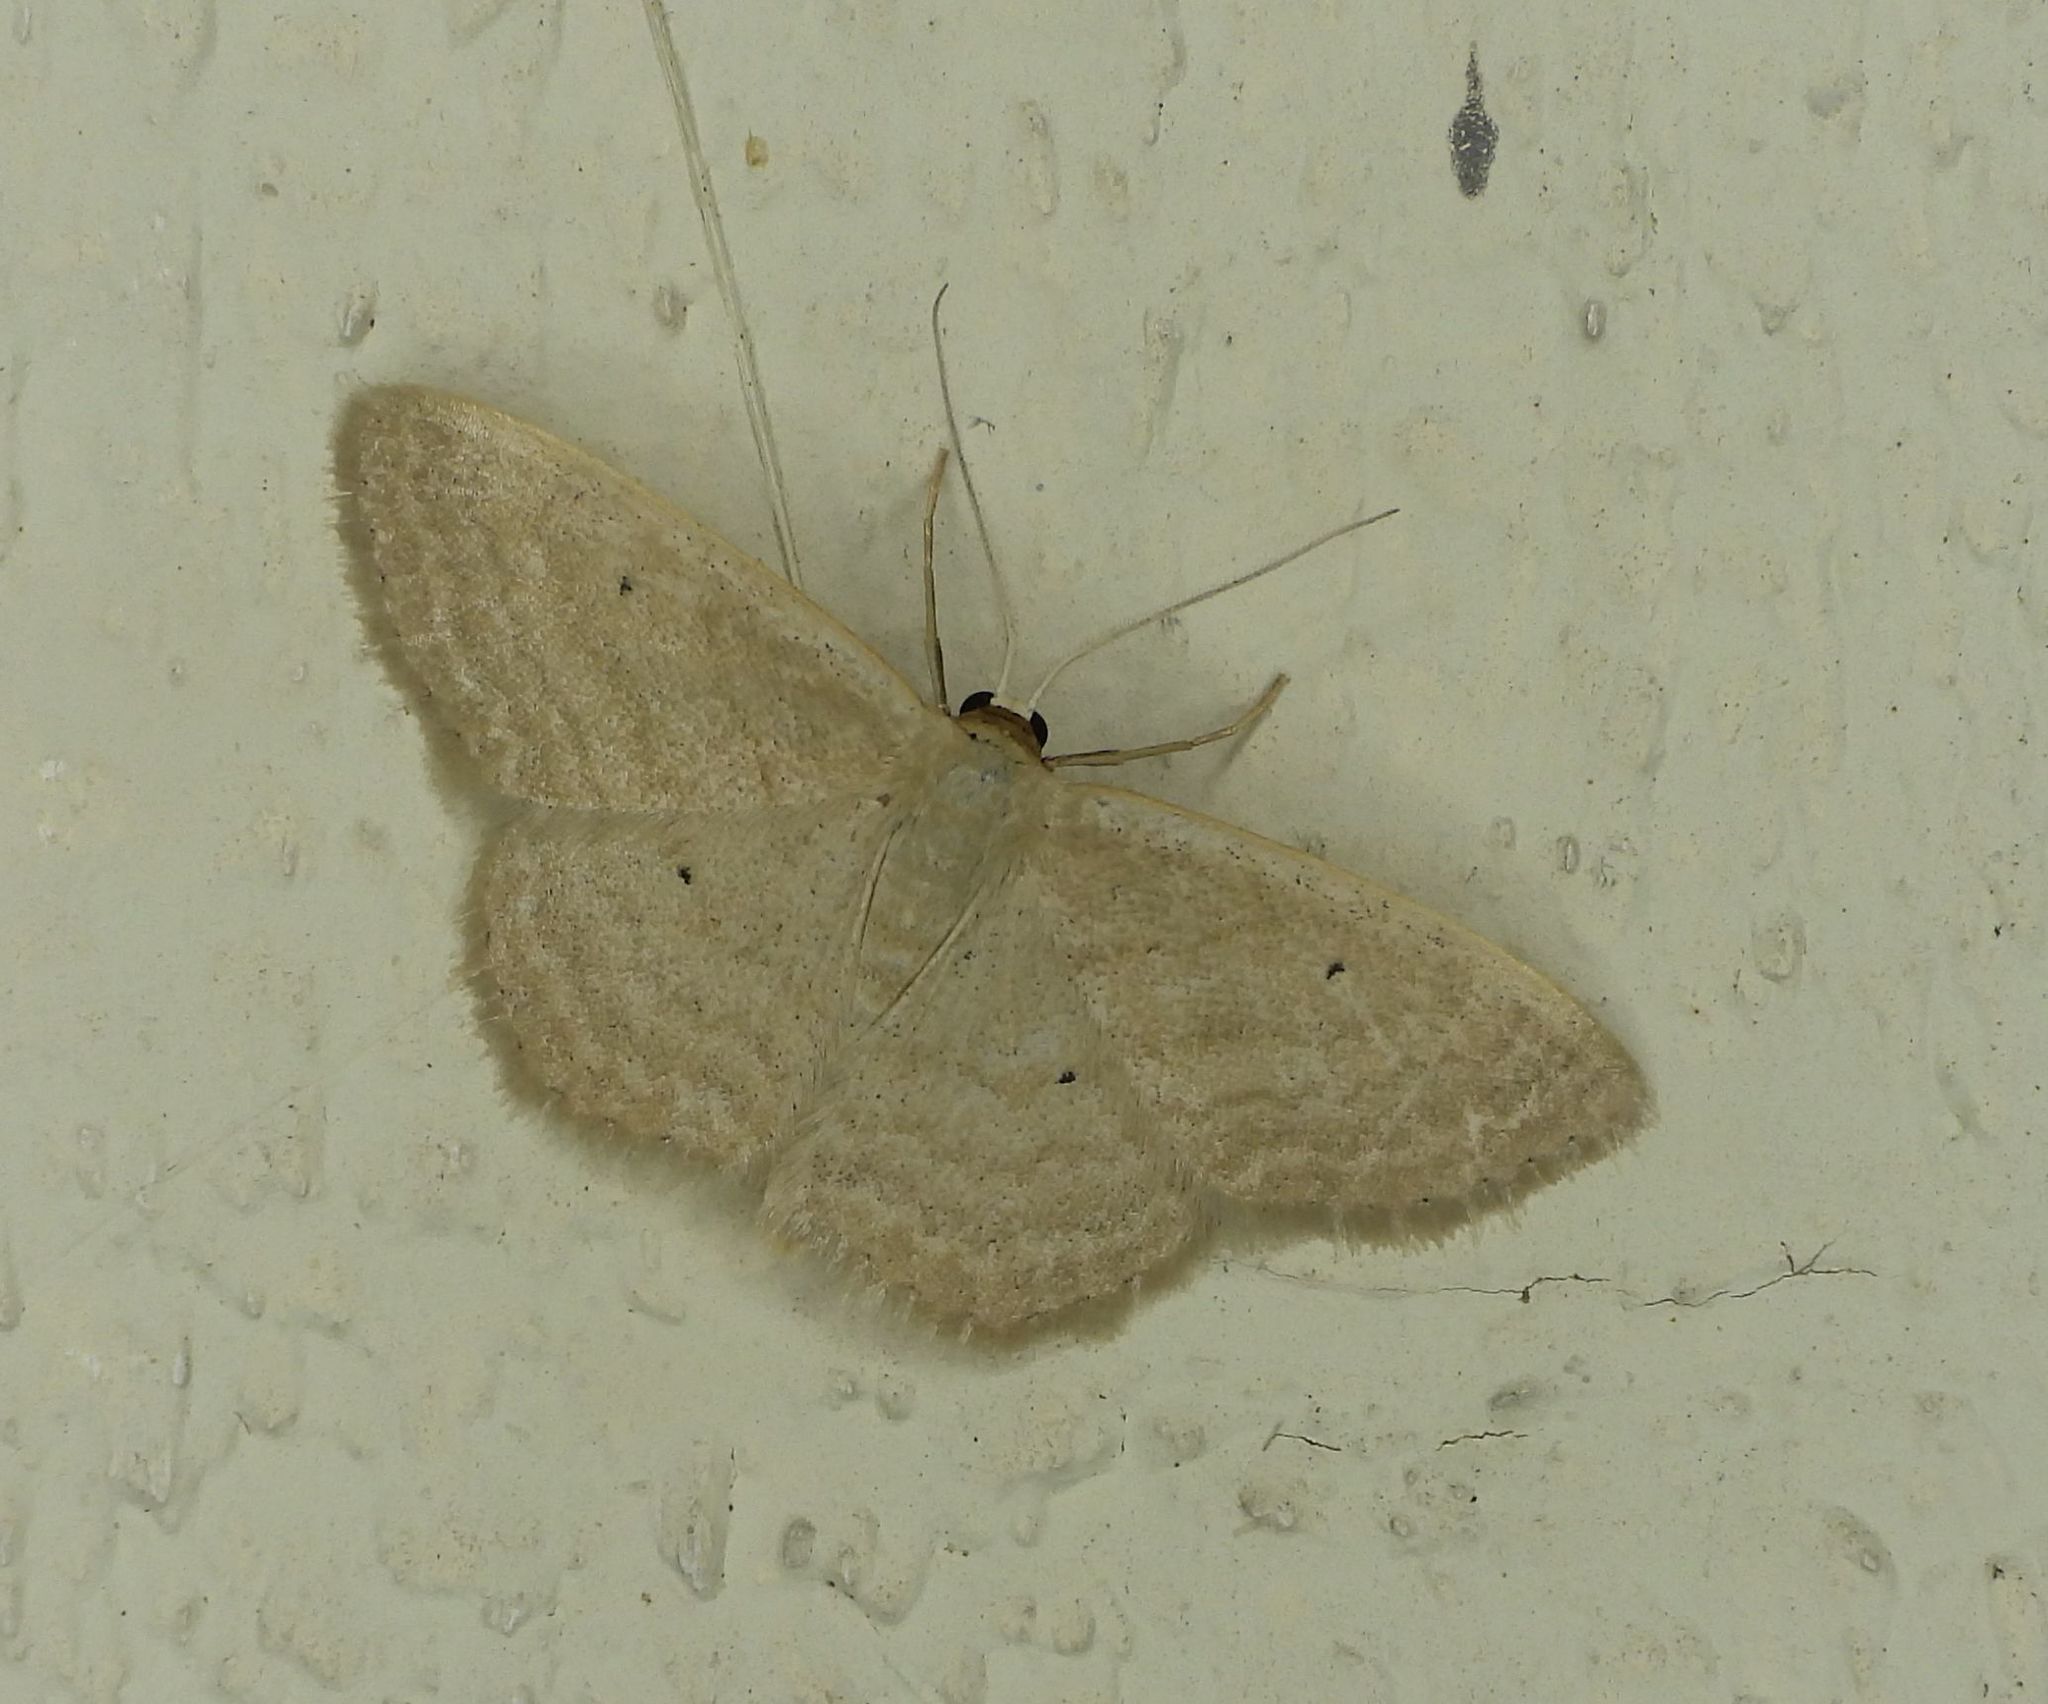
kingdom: Animalia
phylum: Arthropoda
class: Insecta
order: Lepidoptera
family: Geometridae
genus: Scopula
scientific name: Scopula inductata
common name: Soft-lined wave
